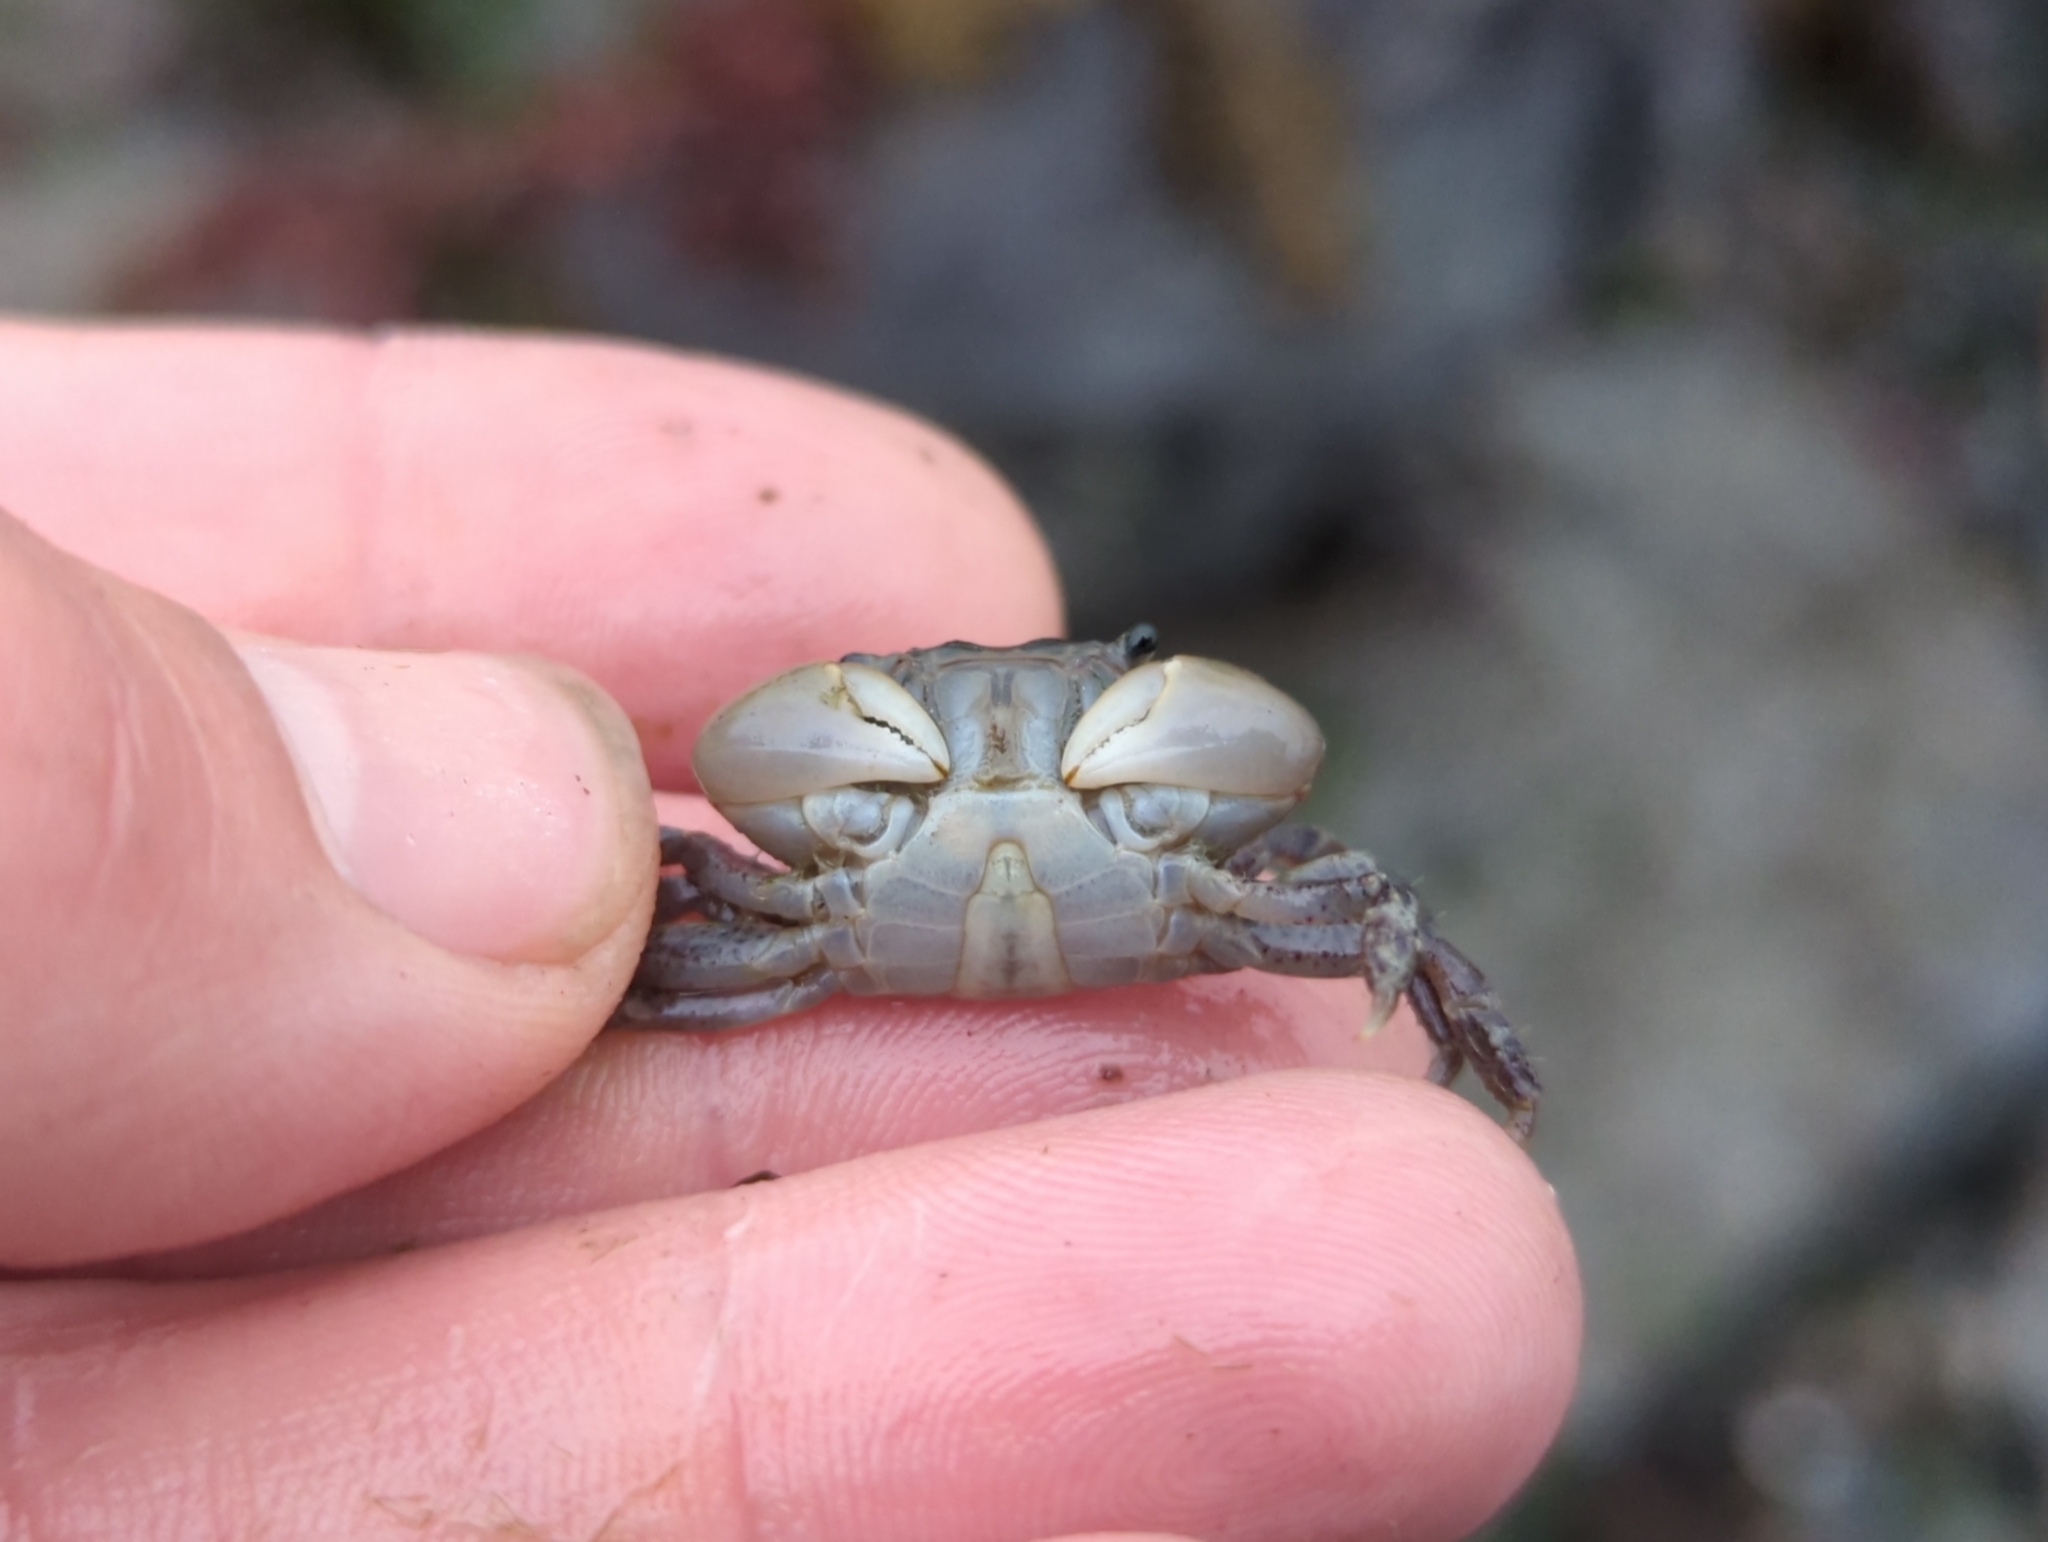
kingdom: Animalia
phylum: Arthropoda
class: Malacostraca
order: Decapoda
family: Varunidae
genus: Hemigrapsus
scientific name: Hemigrapsus oregonensis
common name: Yellow shore crab
